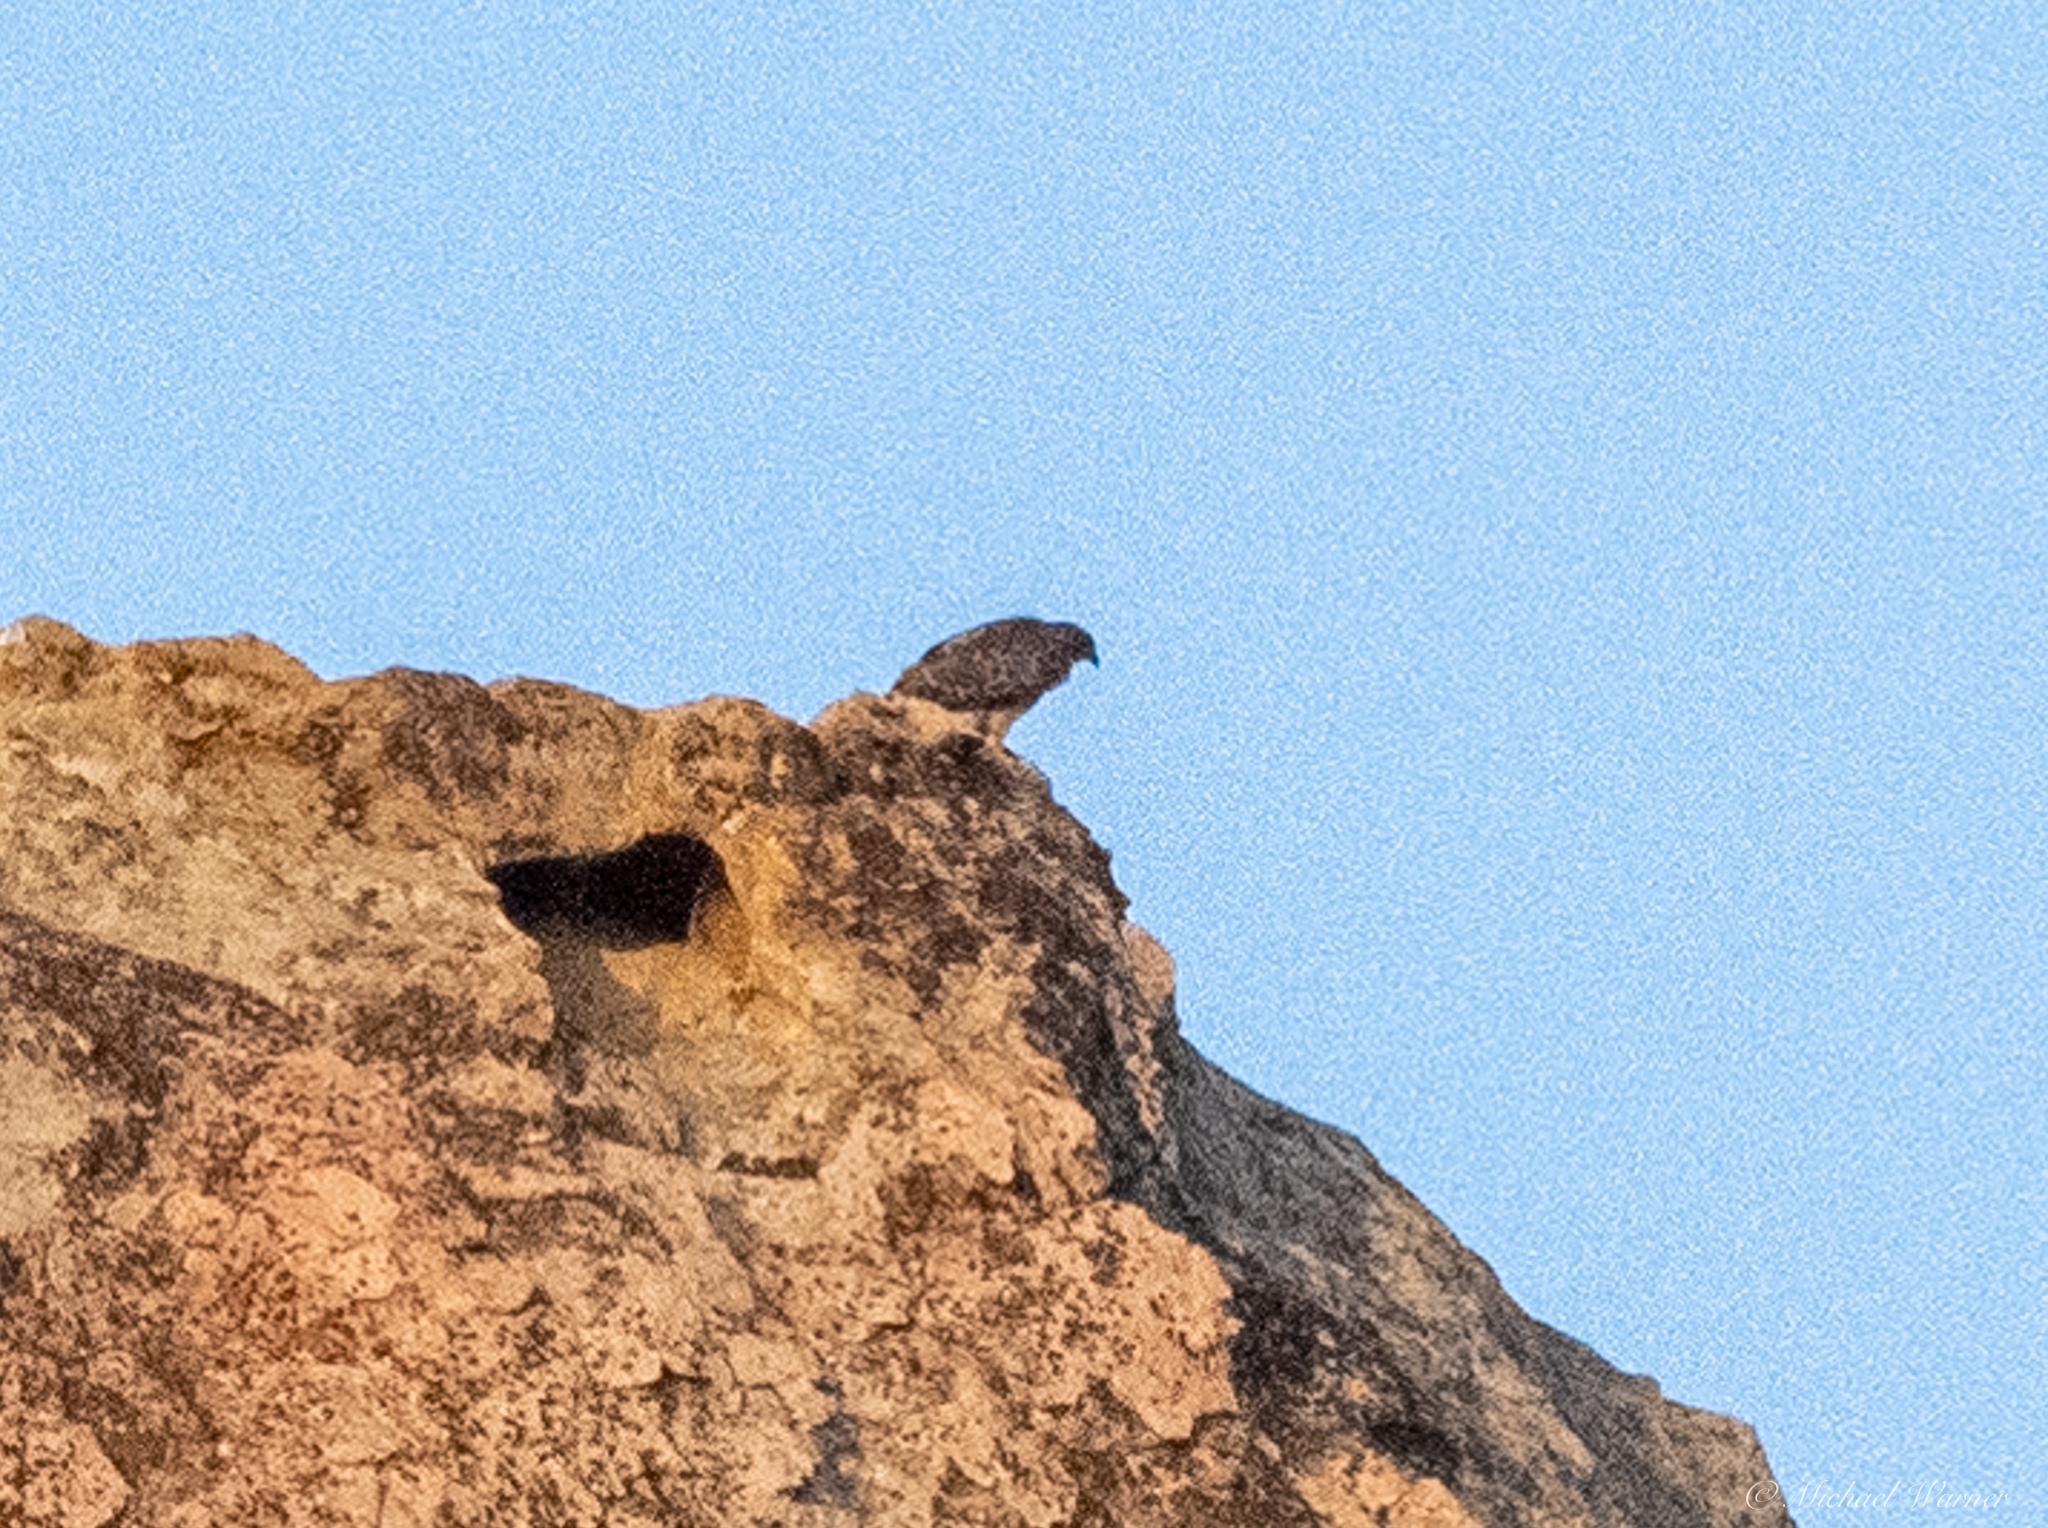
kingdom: Animalia
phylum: Chordata
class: Aves
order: Accipitriformes
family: Accipitridae
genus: Buteo
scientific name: Buteo jamaicensis
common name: Red-tailed hawk
